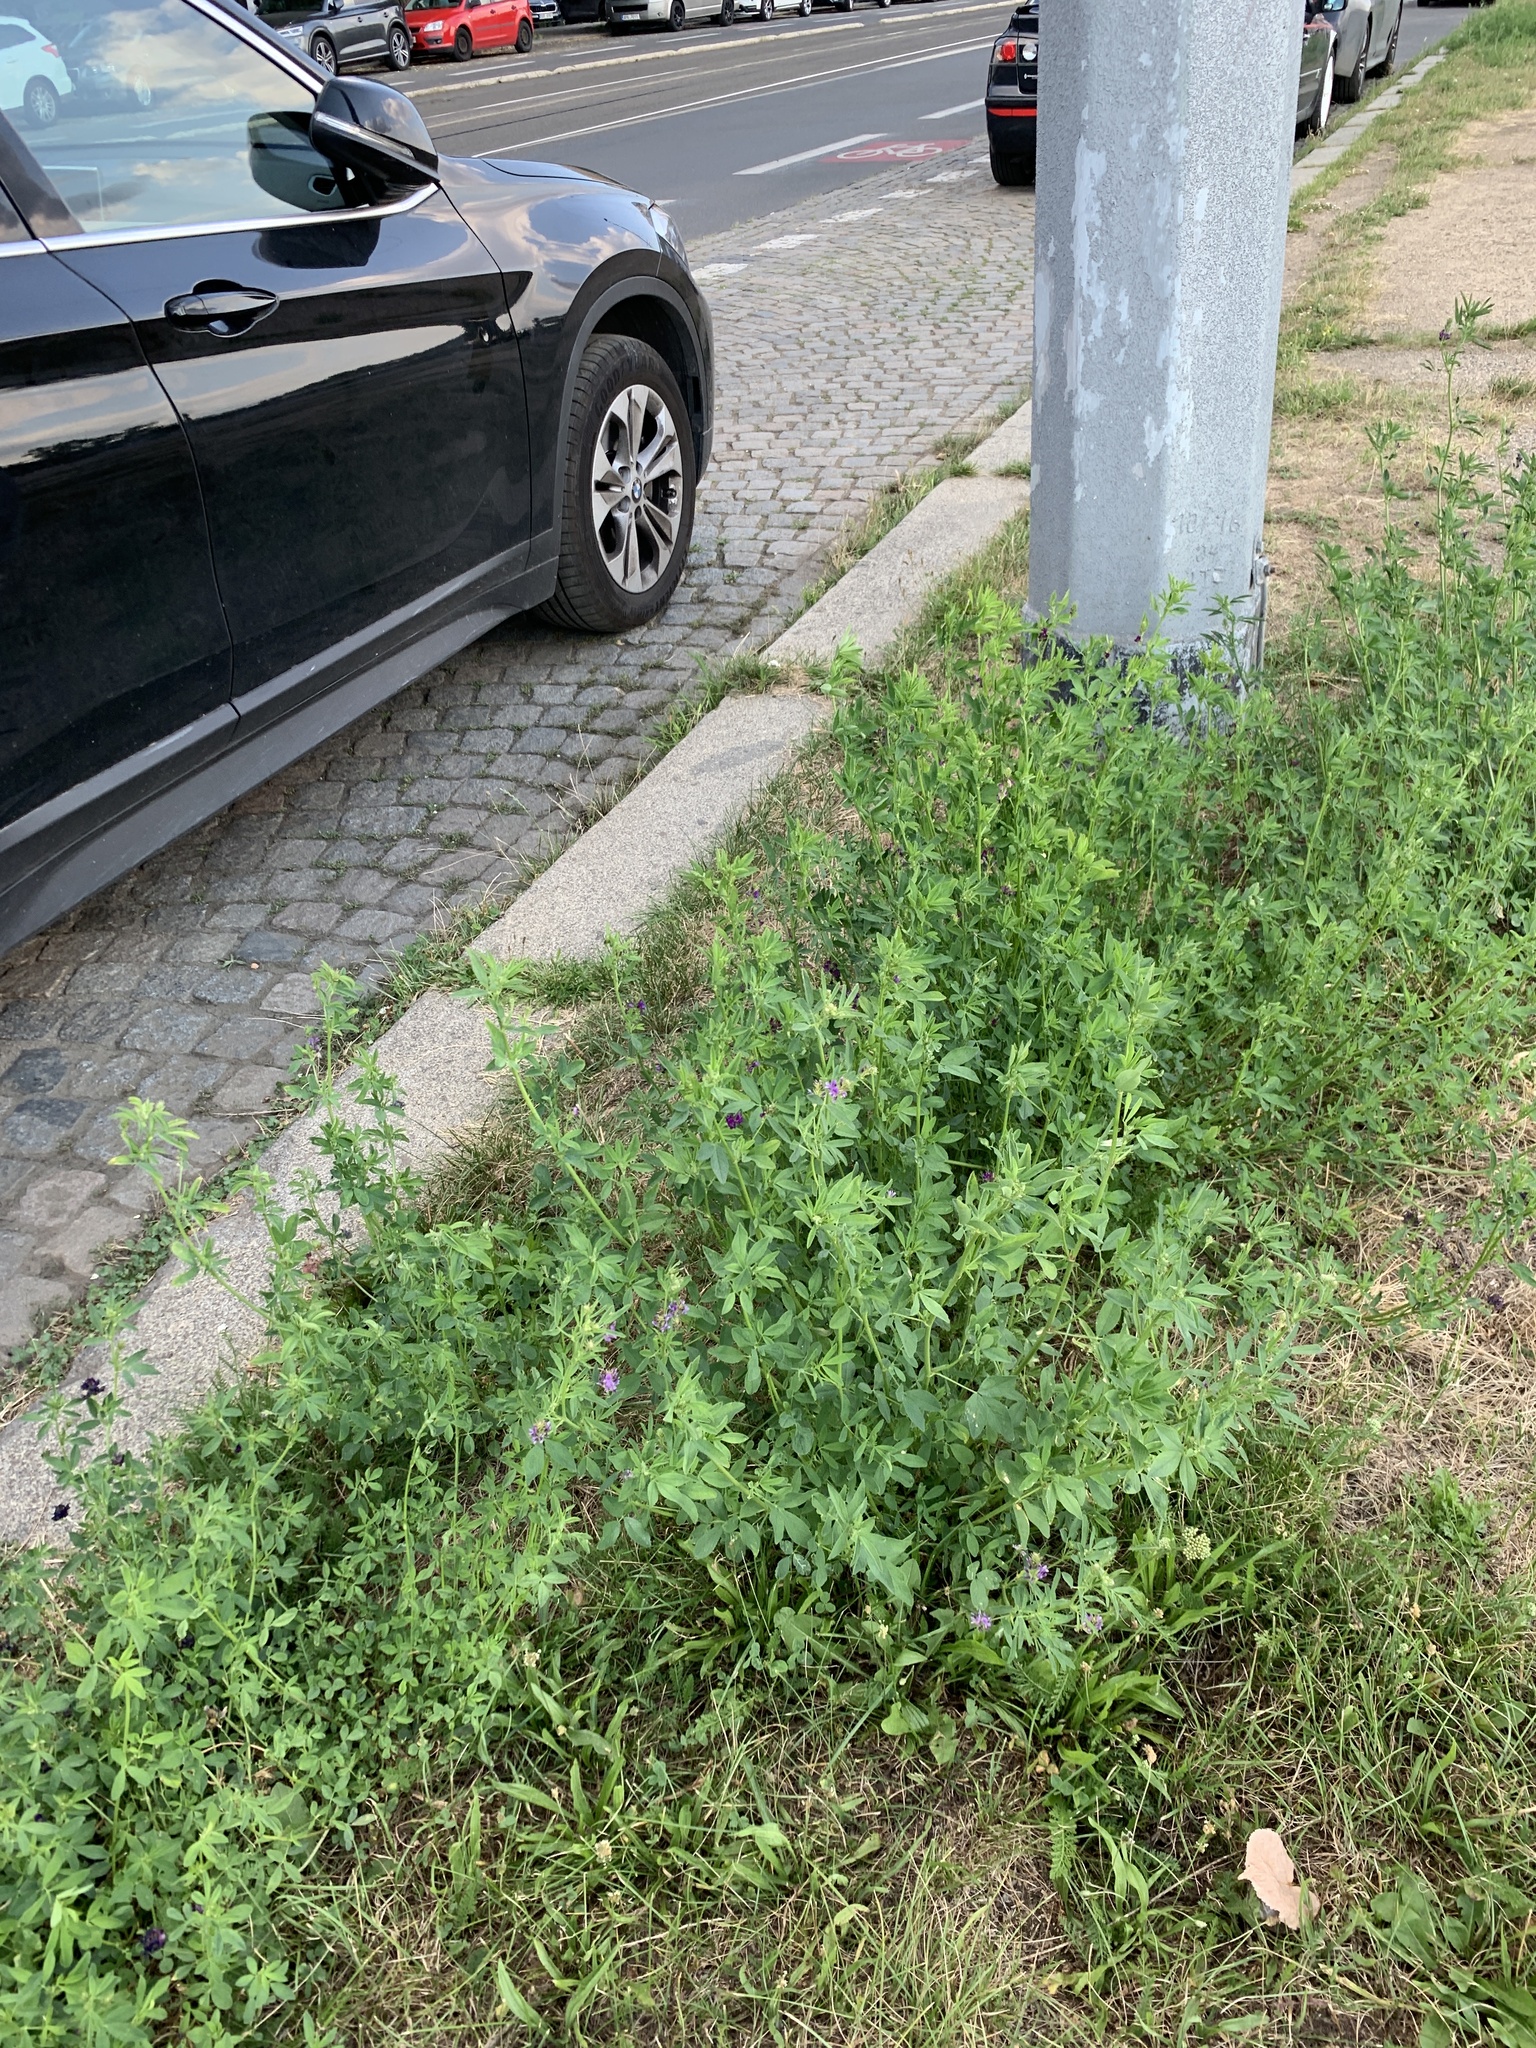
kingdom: Plantae
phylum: Tracheophyta
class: Magnoliopsida
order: Fabales
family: Fabaceae
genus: Medicago
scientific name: Medicago sativa
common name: Alfalfa
